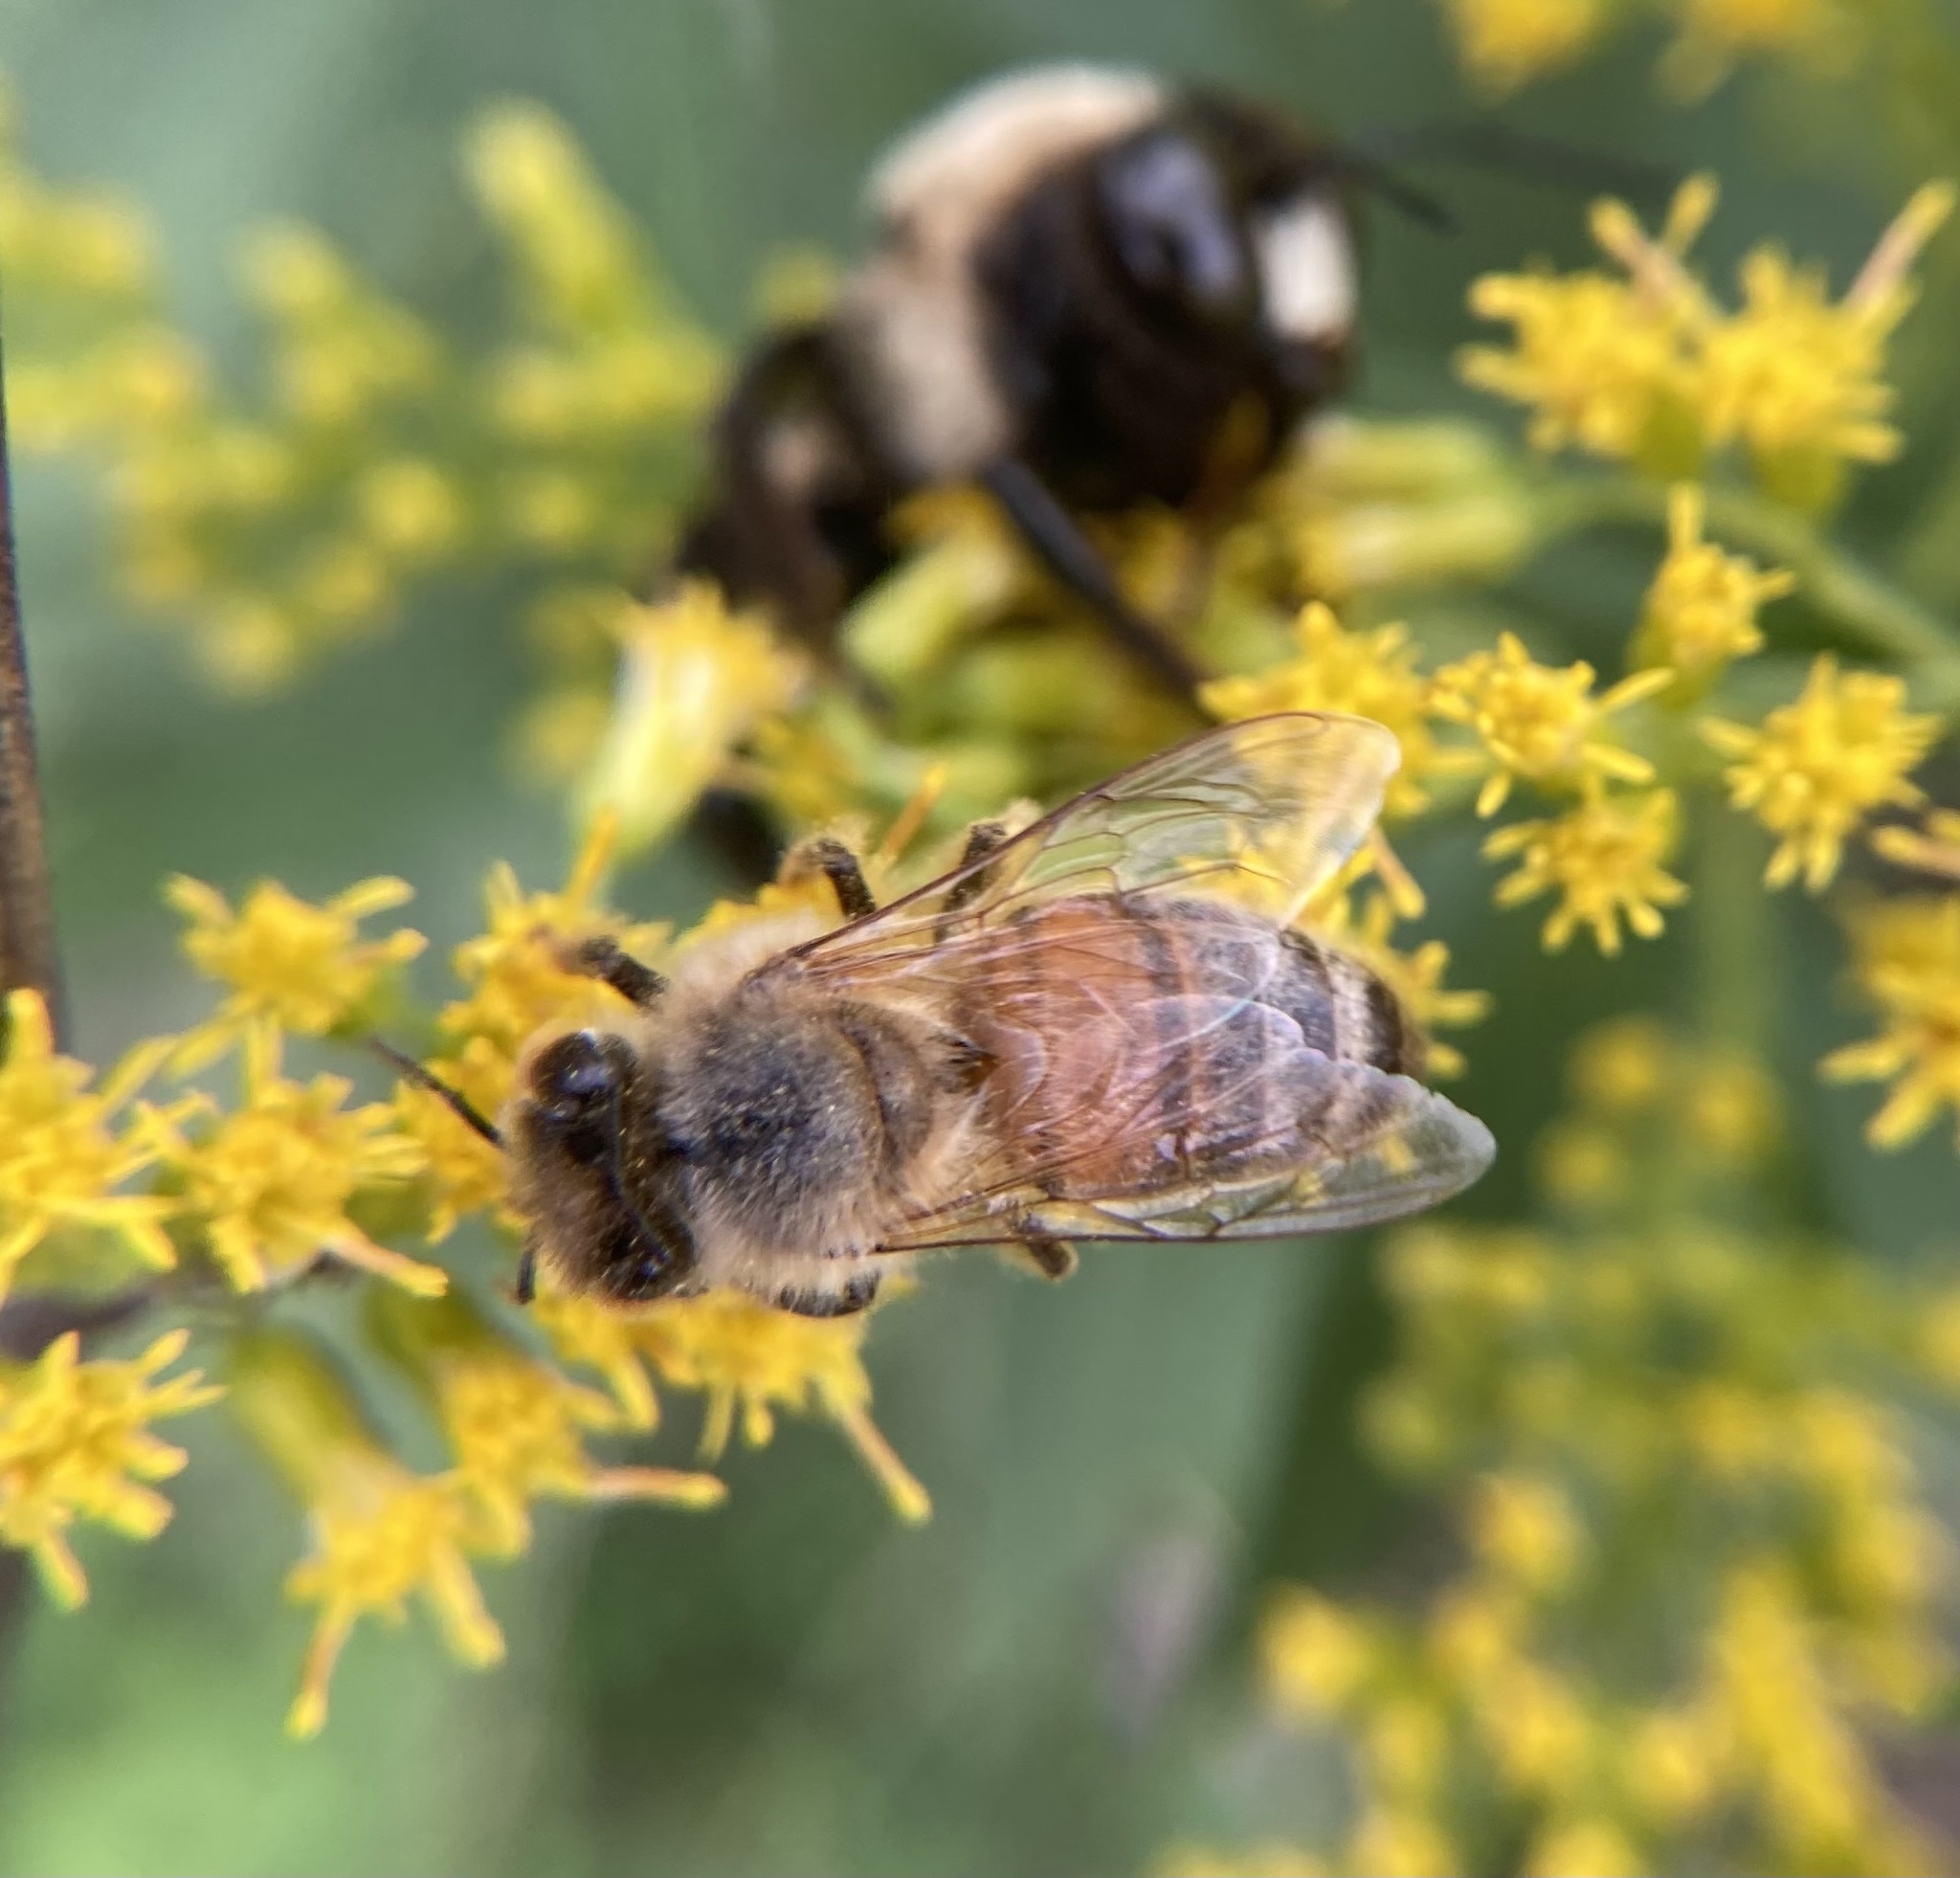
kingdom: Animalia
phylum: Arthropoda
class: Insecta
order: Hymenoptera
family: Apidae
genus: Apis
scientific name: Apis mellifera
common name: Honey bee
